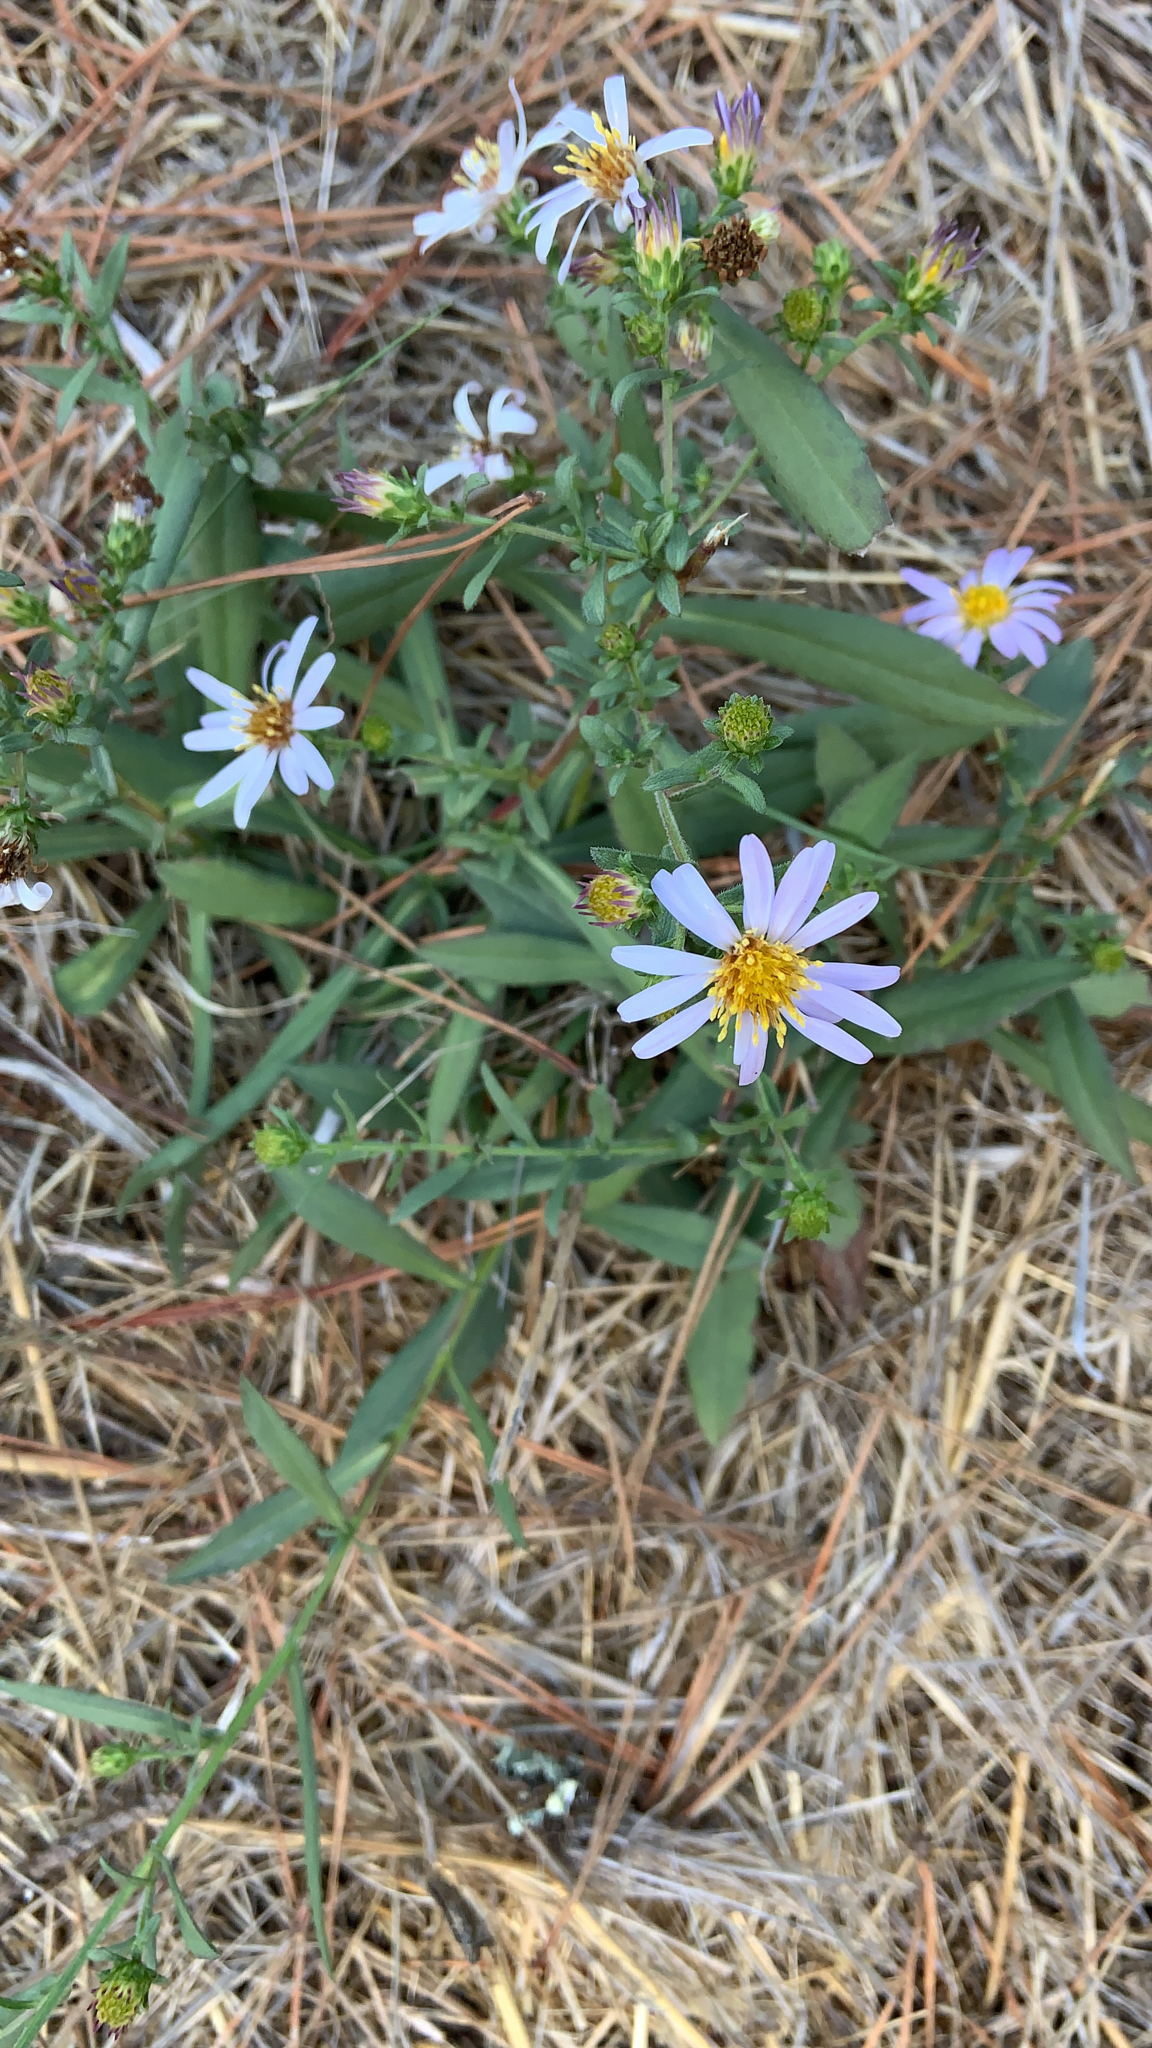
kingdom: Plantae
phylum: Tracheophyta
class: Magnoliopsida
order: Asterales
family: Asteraceae
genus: Symphyotrichum
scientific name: Symphyotrichum chilense
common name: Pacific aster
